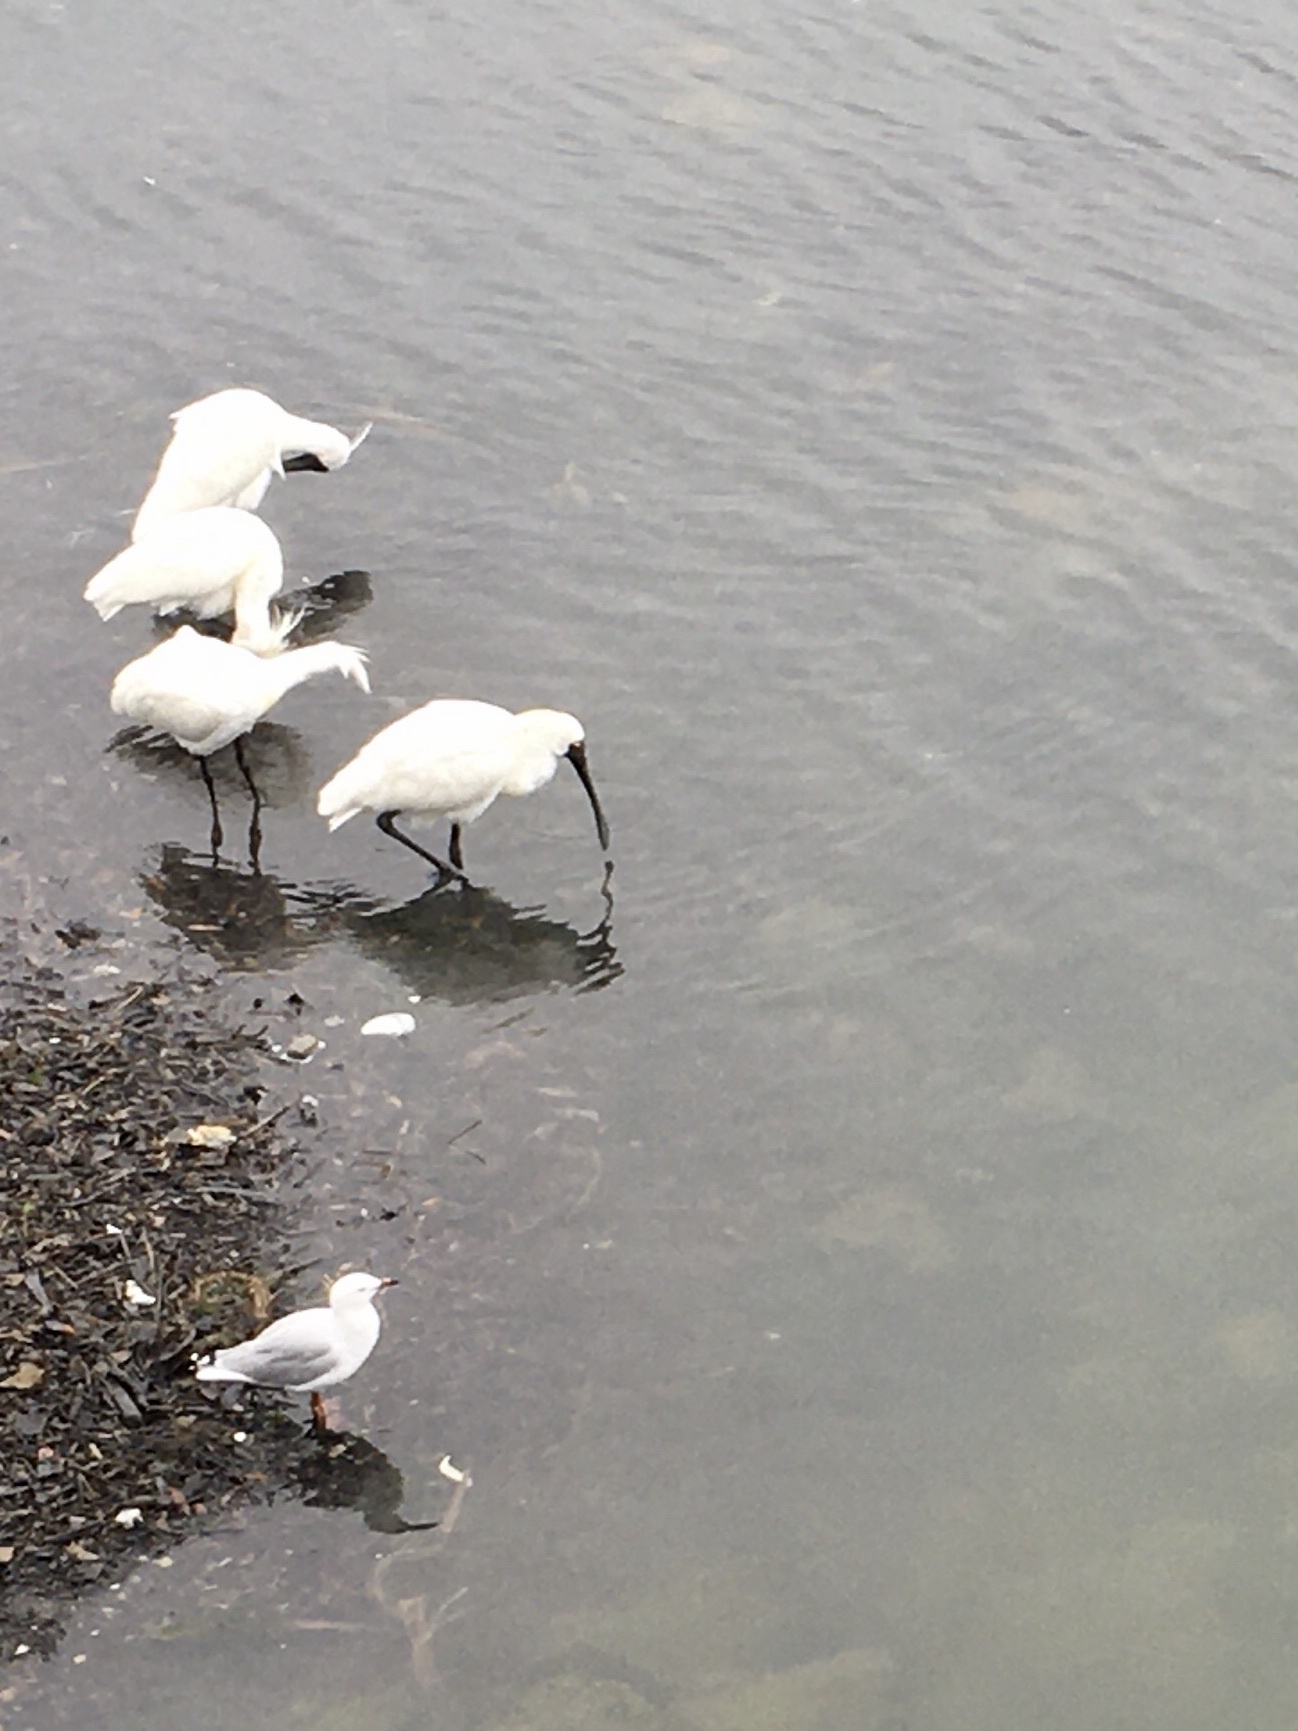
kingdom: Animalia
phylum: Chordata
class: Aves
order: Pelecaniformes
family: Threskiornithidae
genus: Platalea
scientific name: Platalea regia
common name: Royal spoonbill
